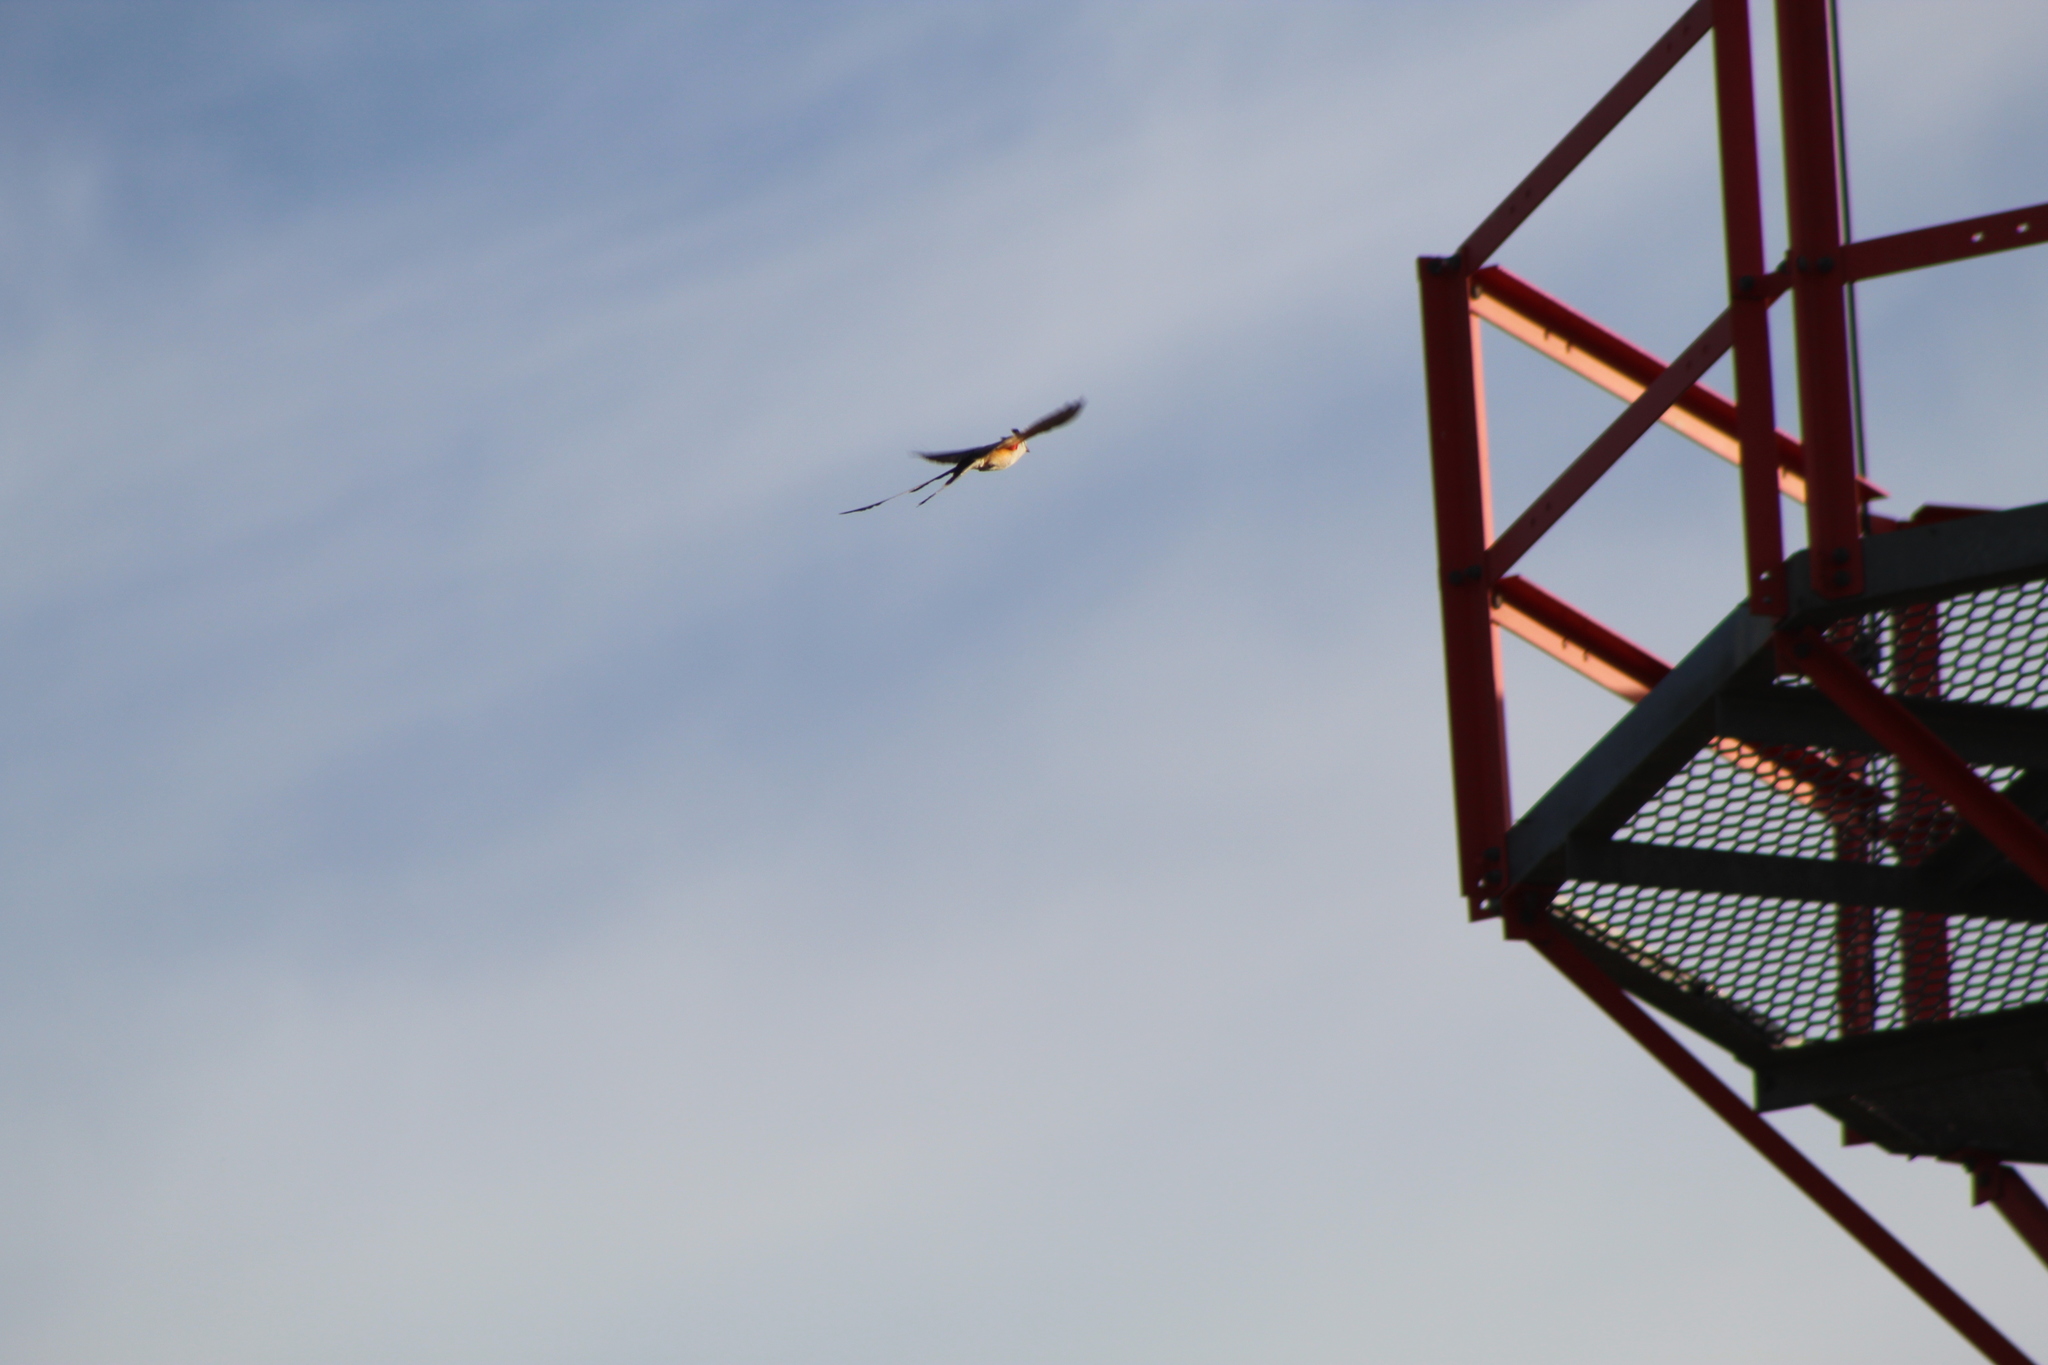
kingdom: Animalia
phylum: Chordata
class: Aves
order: Passeriformes
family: Tyrannidae
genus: Tyrannus
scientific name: Tyrannus forficatus
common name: Scissor-tailed flycatcher
